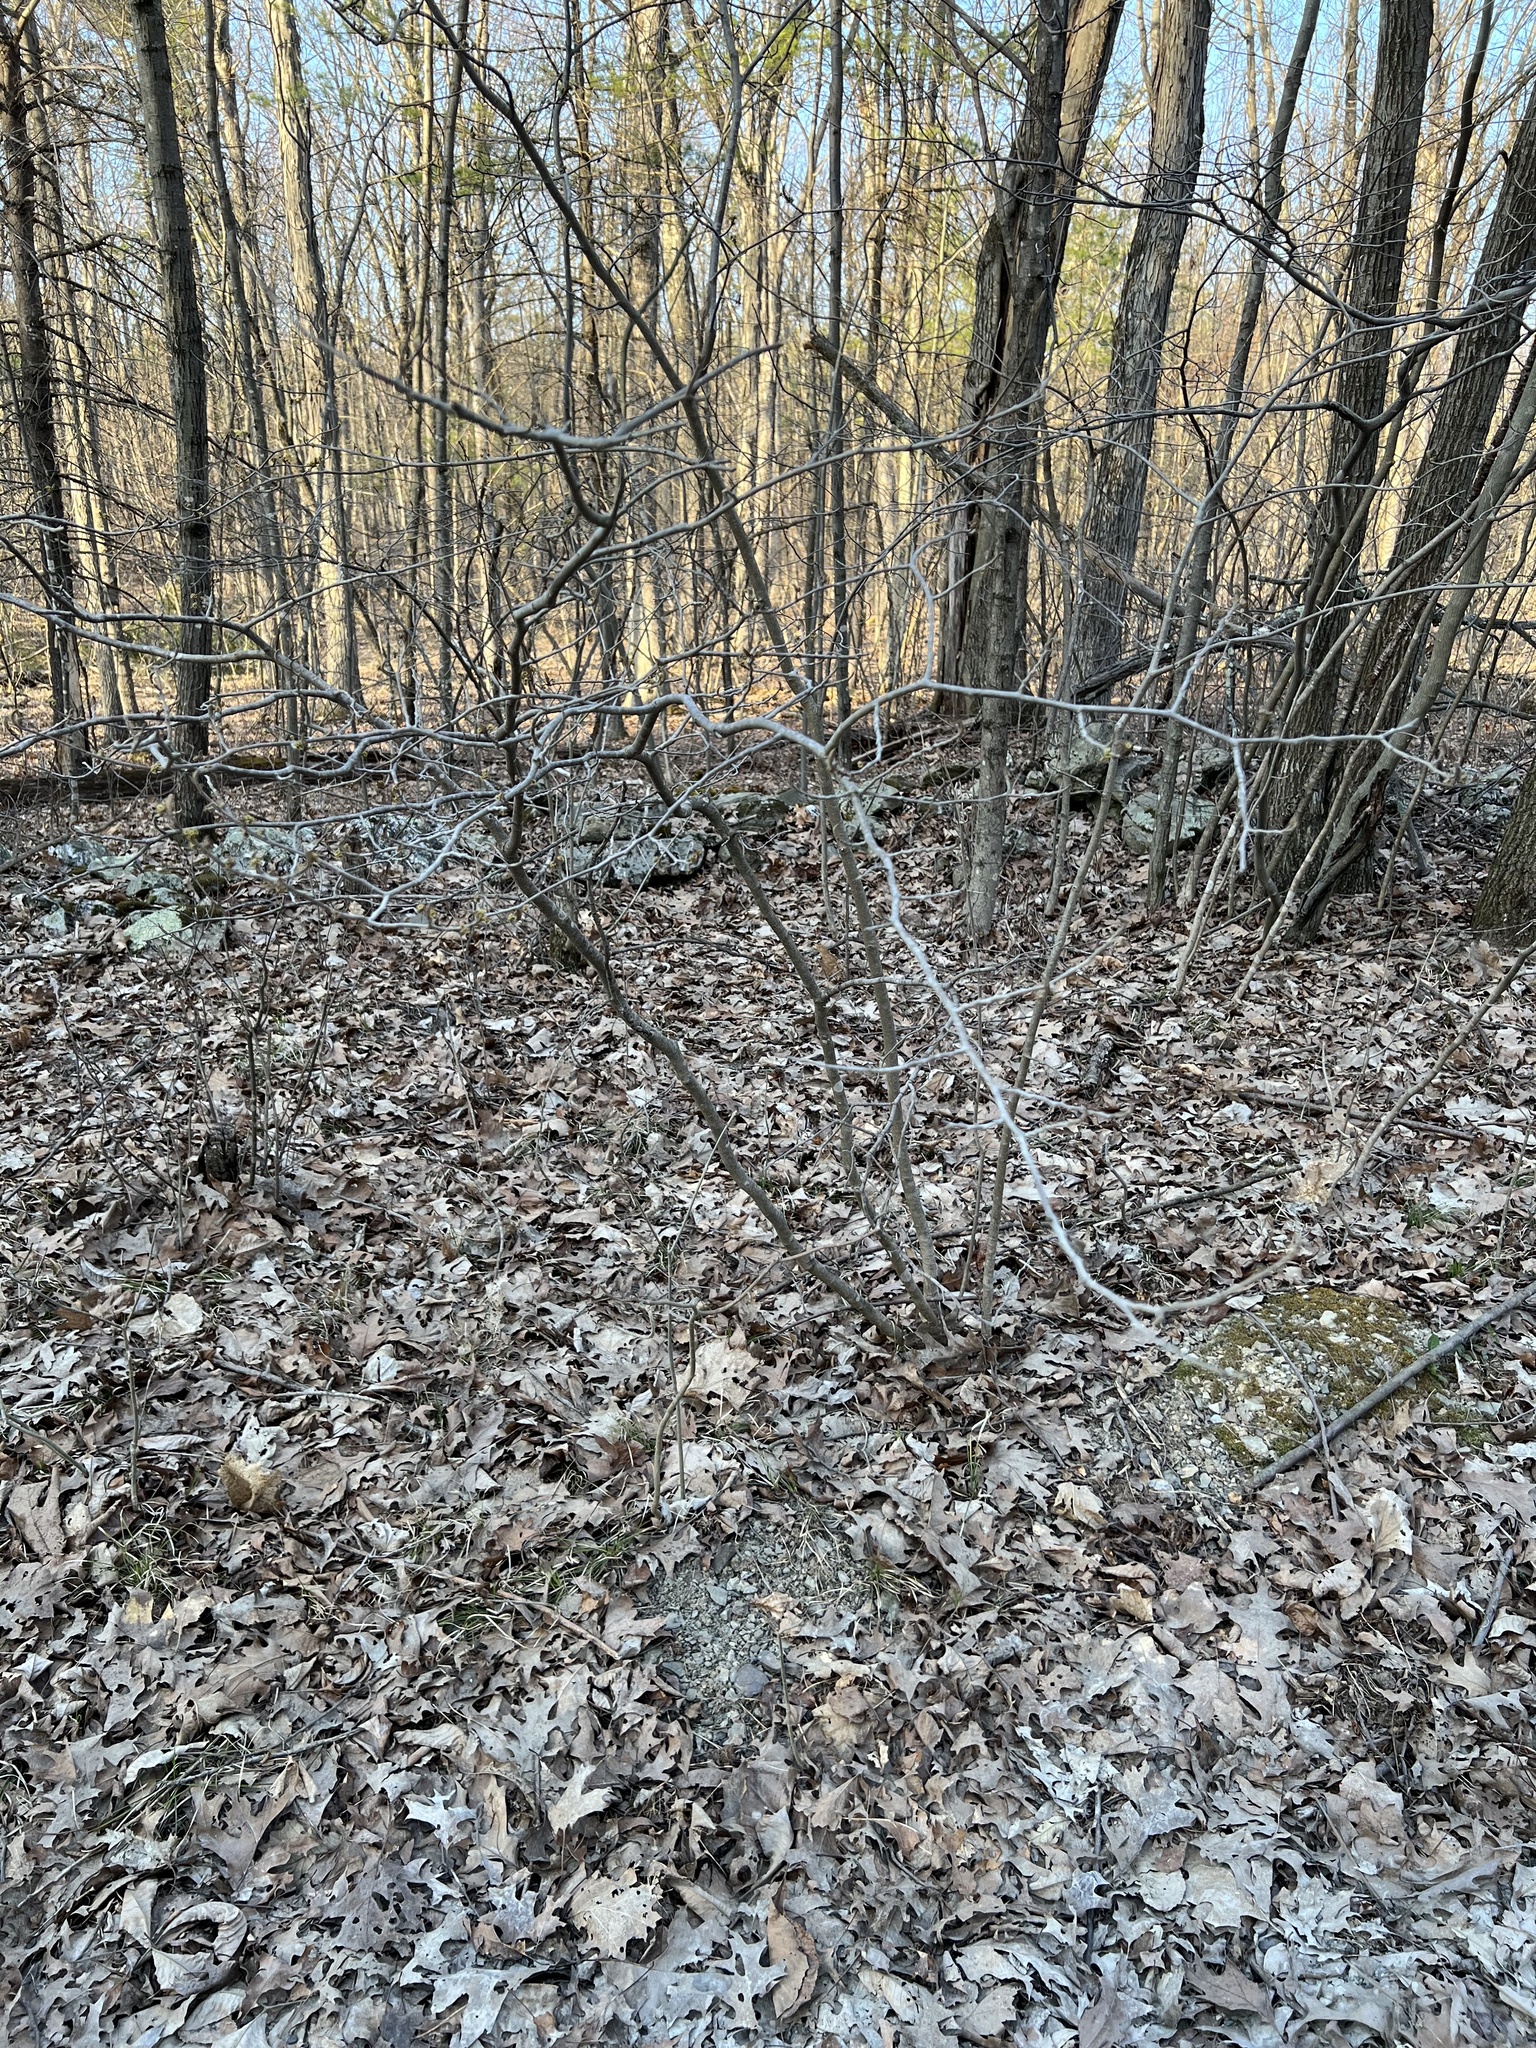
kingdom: Plantae
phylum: Tracheophyta
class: Magnoliopsida
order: Saxifragales
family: Hamamelidaceae
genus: Hamamelis
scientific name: Hamamelis virginiana
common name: Witch-hazel
